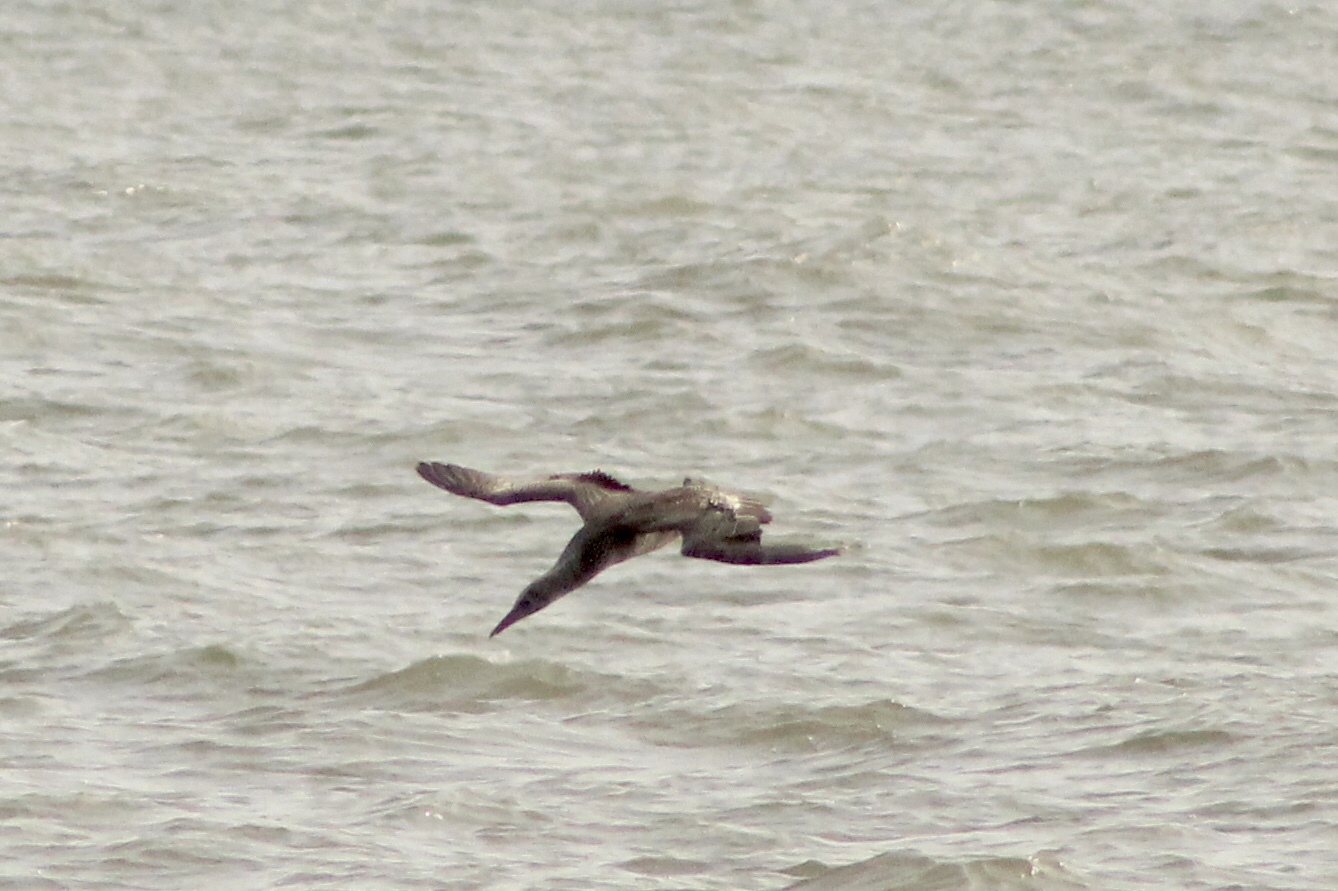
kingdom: Animalia
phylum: Chordata
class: Aves
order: Suliformes
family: Sulidae
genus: Morus
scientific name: Morus bassanus
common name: Northern gannet
